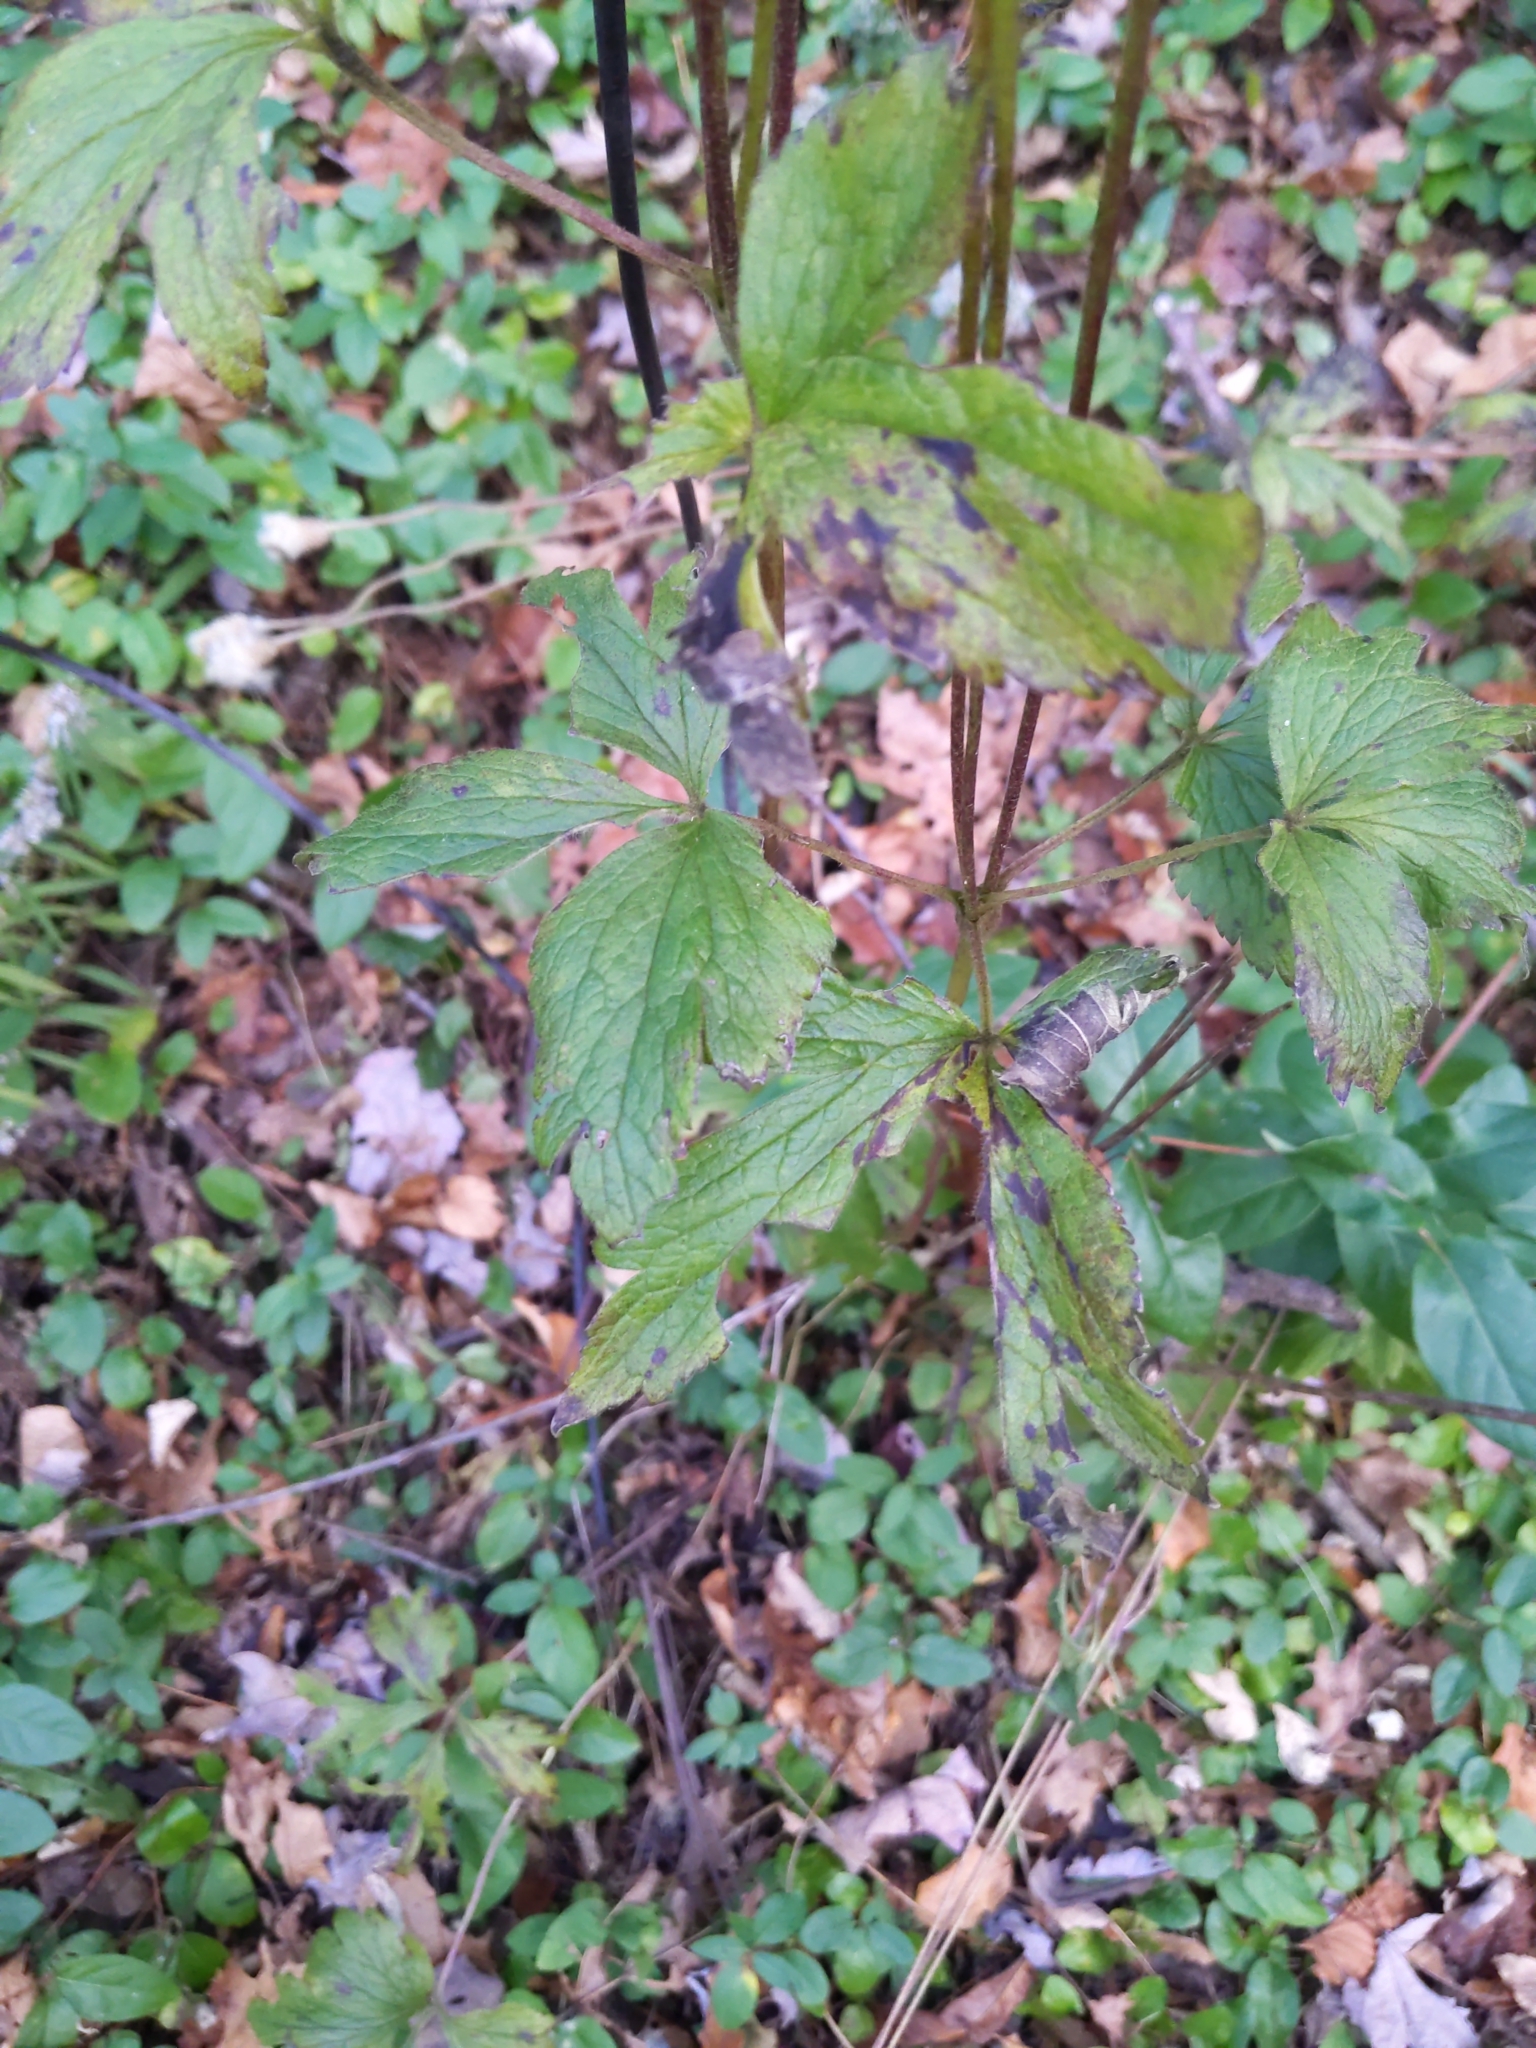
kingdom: Plantae
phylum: Tracheophyta
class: Magnoliopsida
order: Ranunculales
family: Ranunculaceae
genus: Anemone
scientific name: Anemone virginiana
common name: Tall anemone
